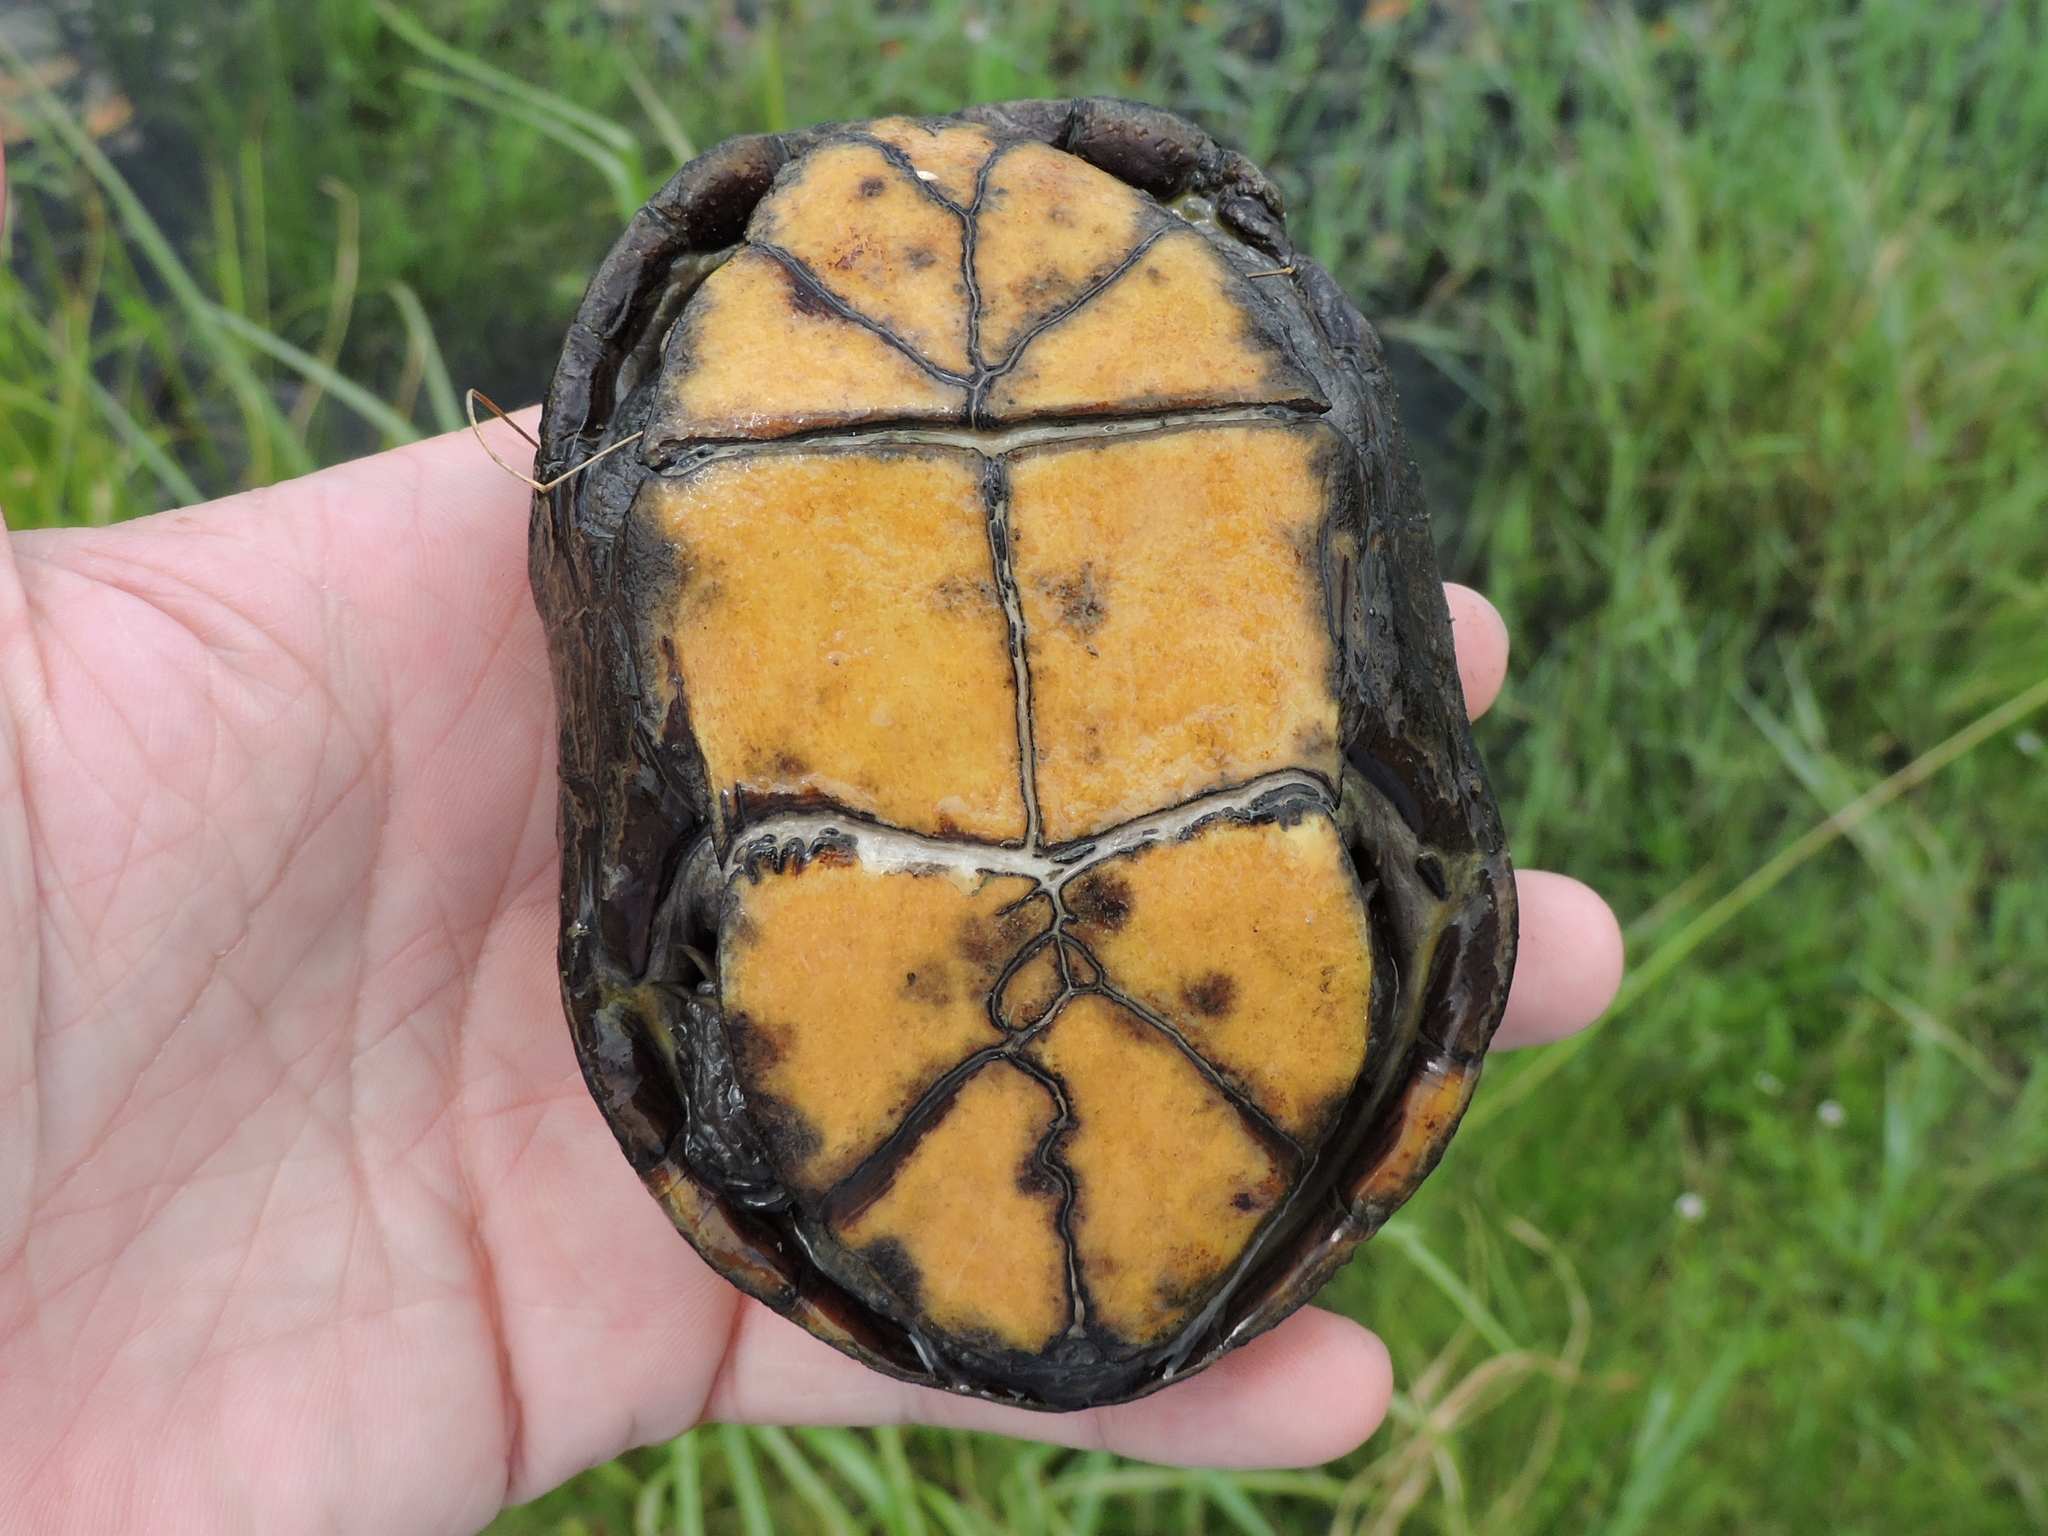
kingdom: Animalia
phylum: Chordata
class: Testudines
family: Kinosternidae
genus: Kinosternon
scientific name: Kinosternon subrubrum
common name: Eastern mud turtle
